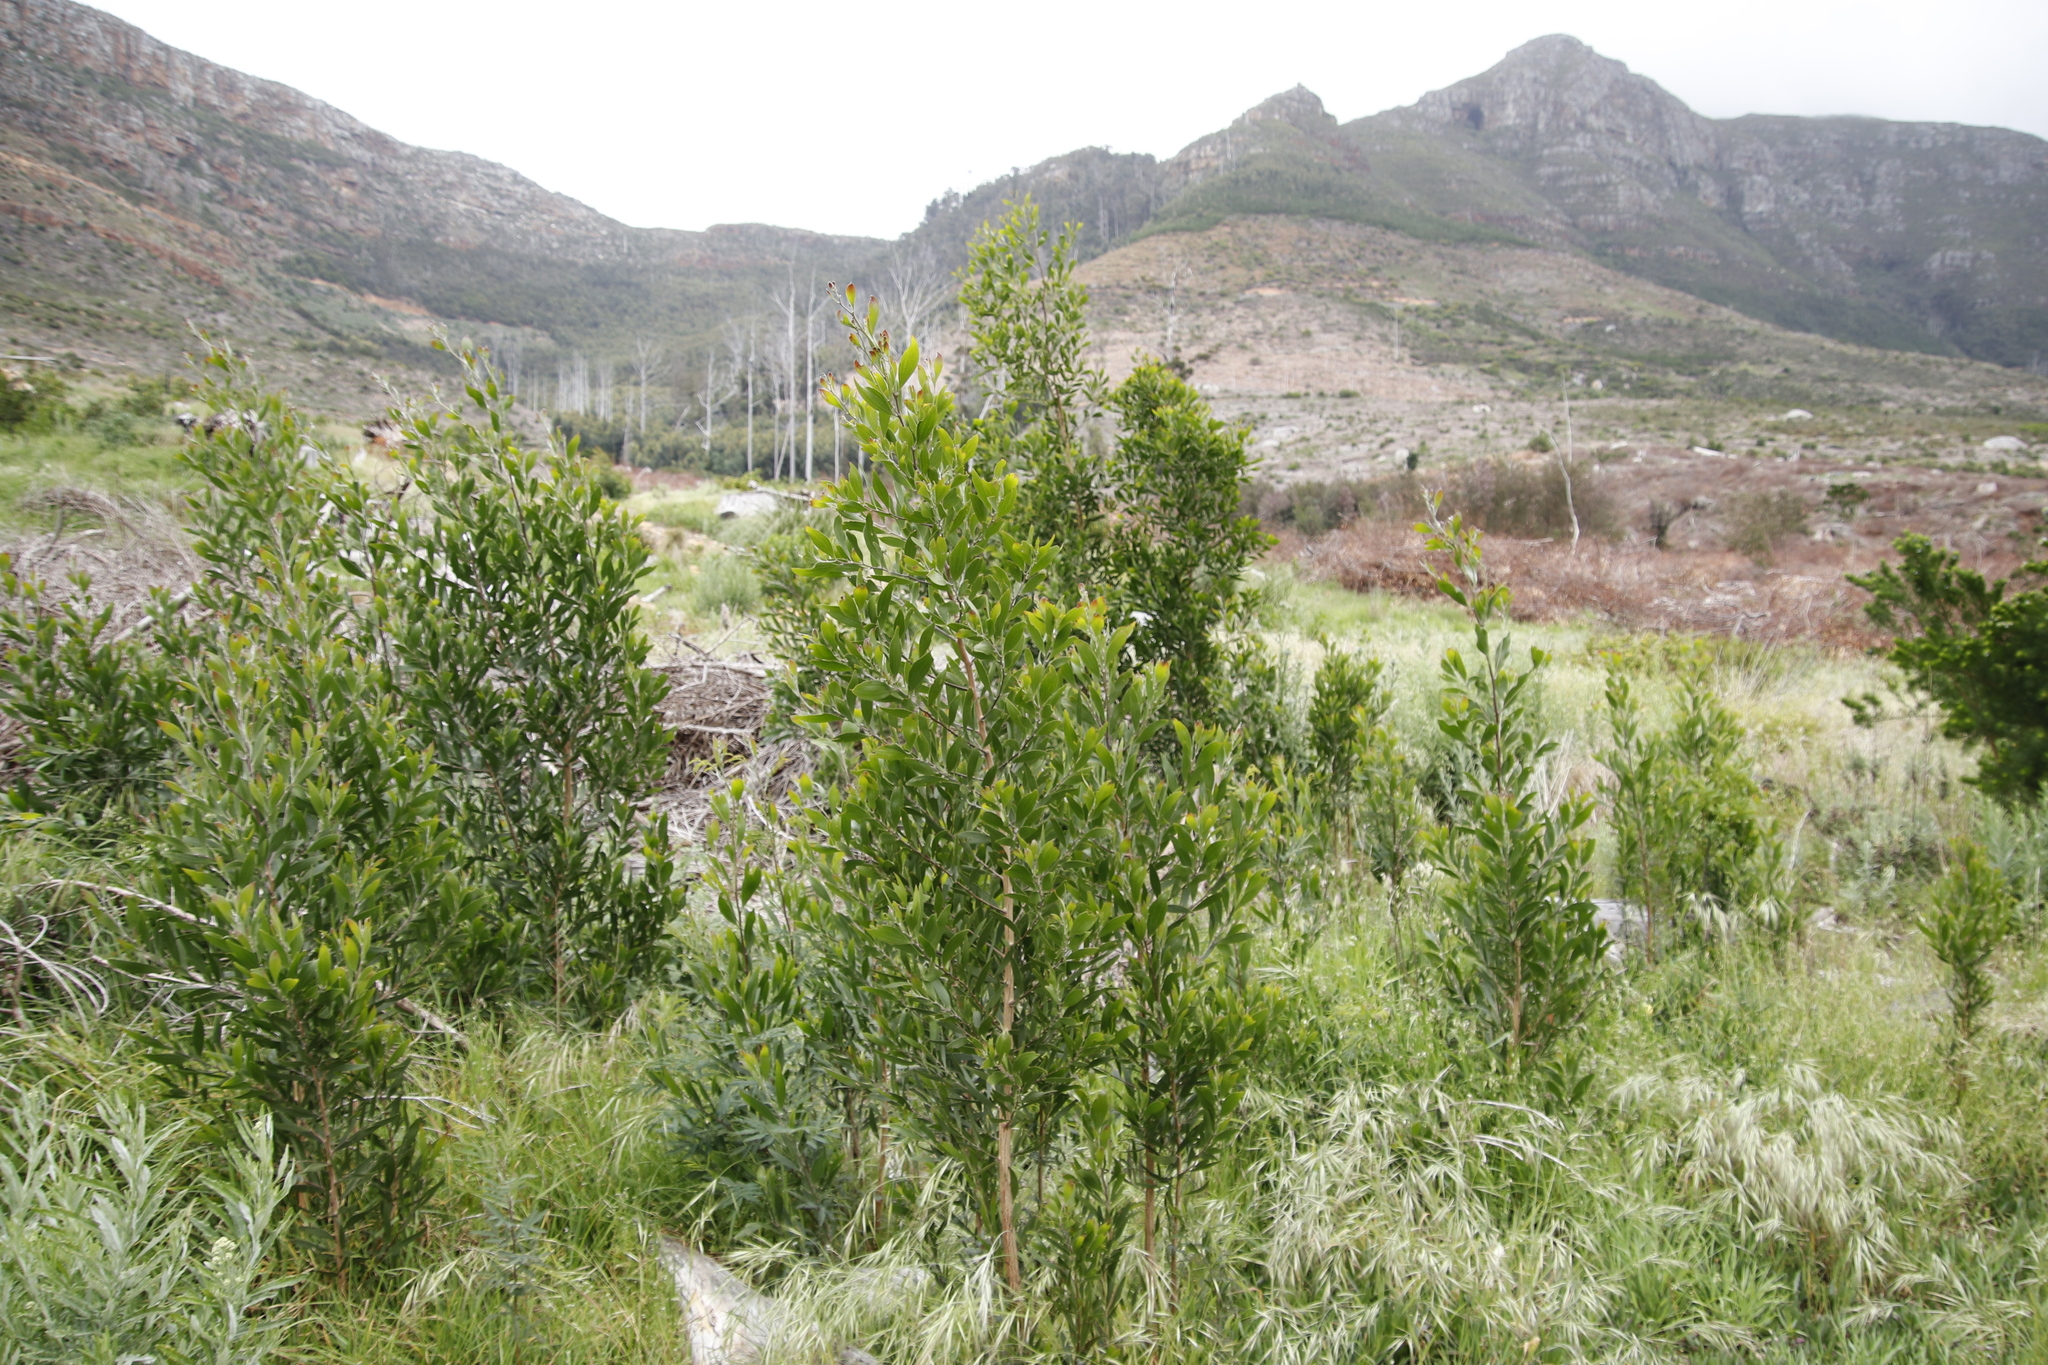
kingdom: Plantae
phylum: Tracheophyta
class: Magnoliopsida
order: Fabales
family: Fabaceae
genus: Acacia
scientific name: Acacia melanoxylon
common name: Blackwood
